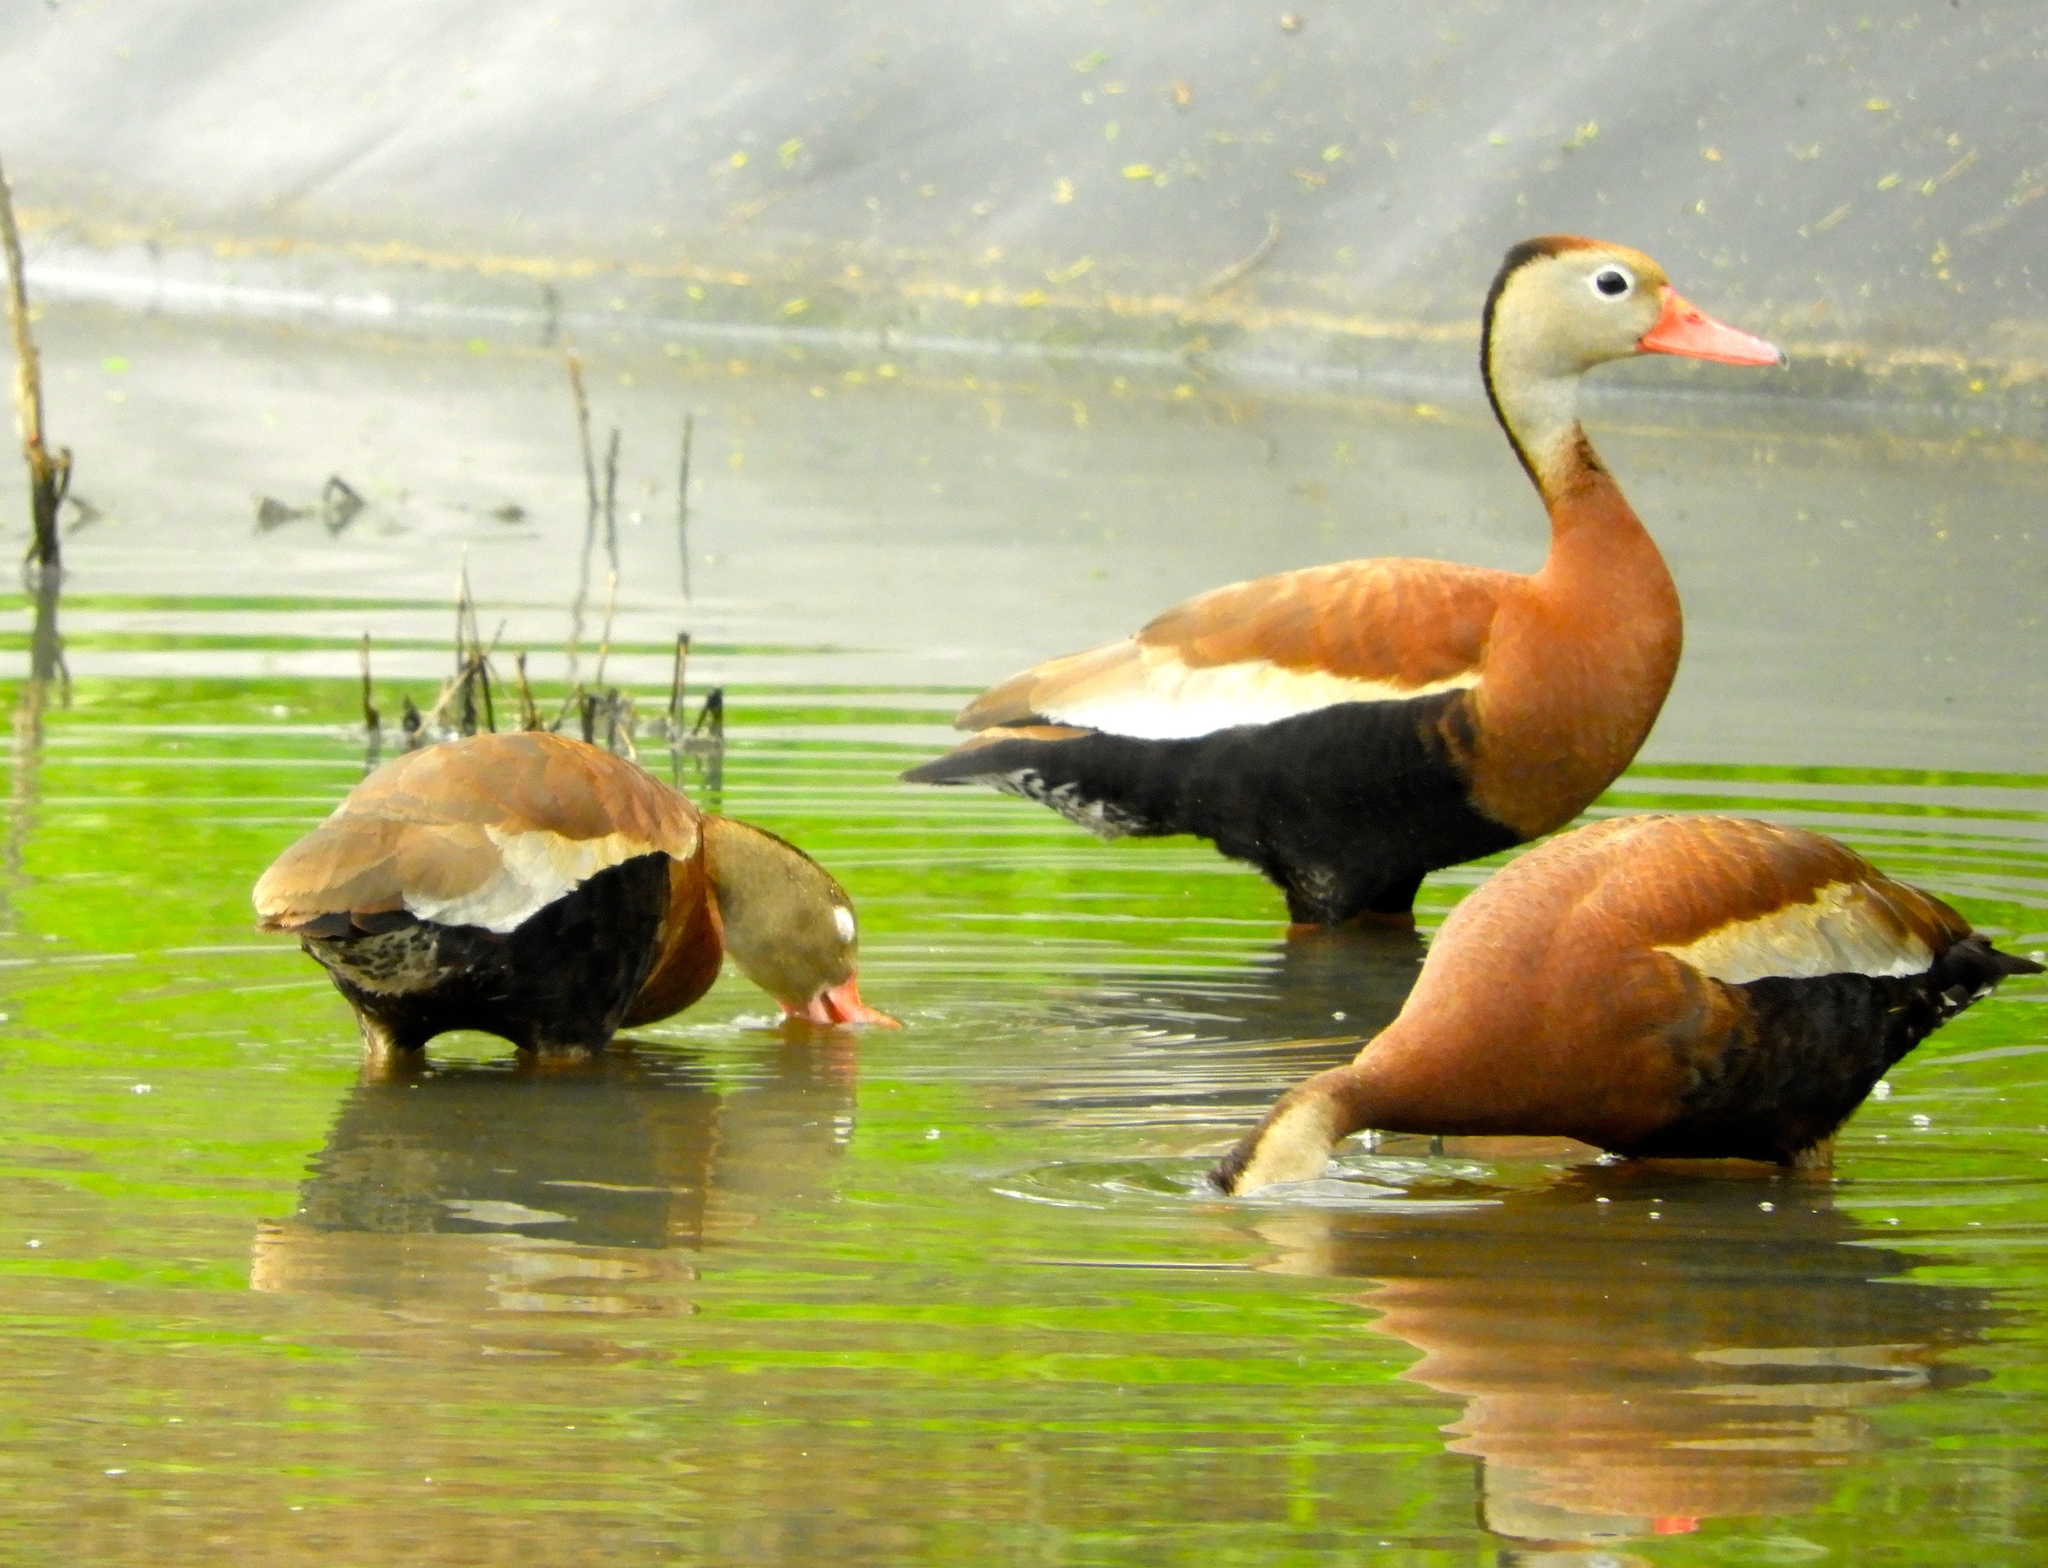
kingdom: Animalia
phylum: Chordata
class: Aves
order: Anseriformes
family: Anatidae
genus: Dendrocygna
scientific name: Dendrocygna autumnalis
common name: Black-bellied whistling duck
